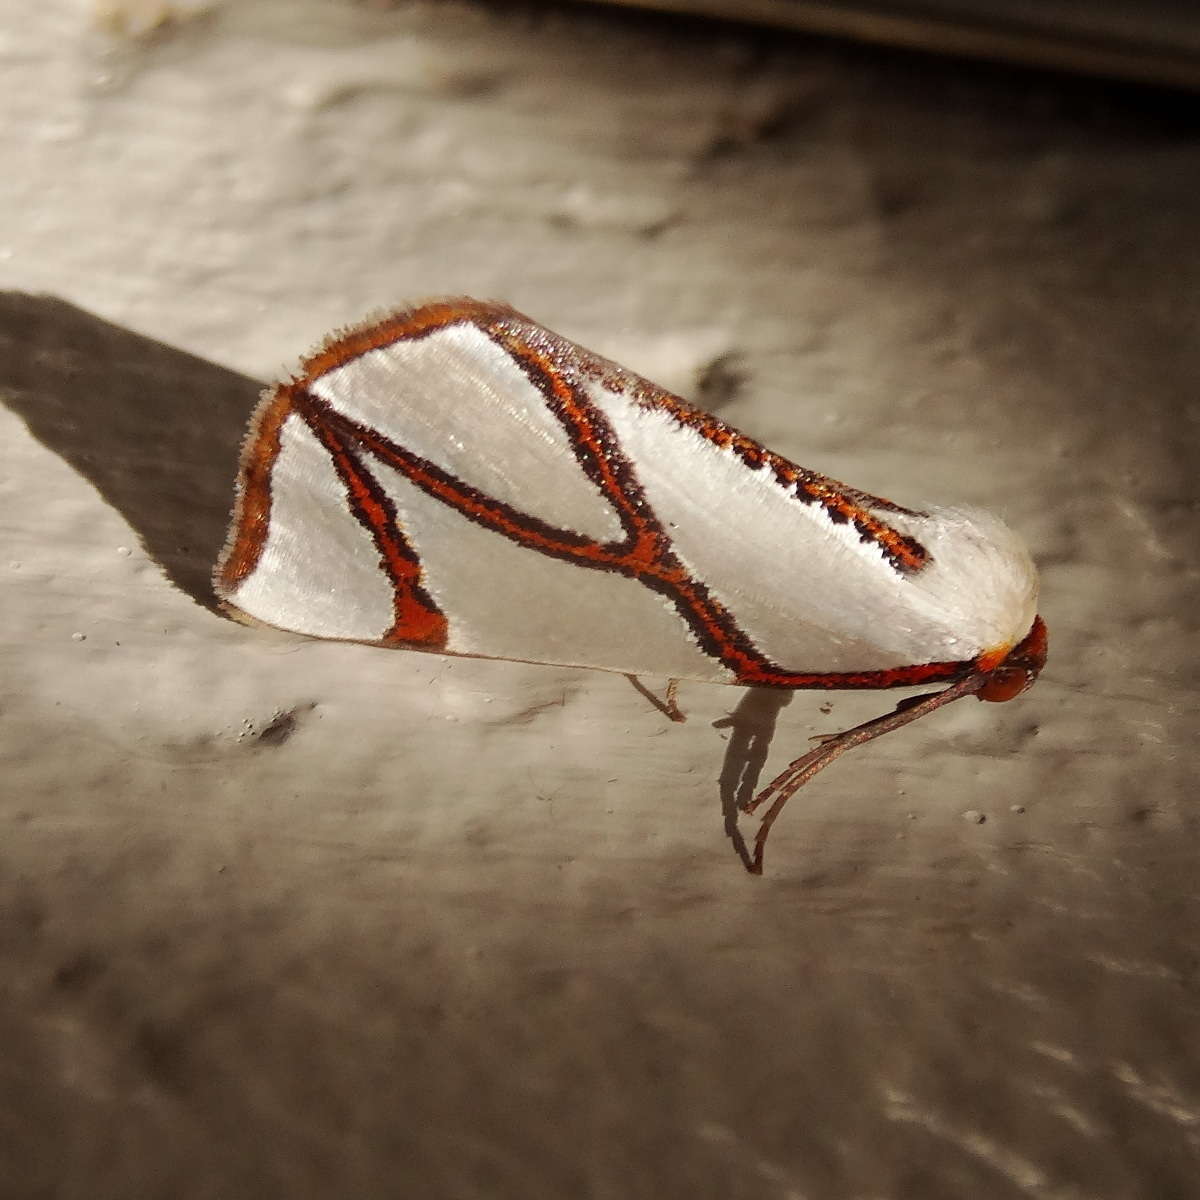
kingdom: Animalia
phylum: Arthropoda
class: Insecta
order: Lepidoptera
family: Geometridae
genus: Thalaina
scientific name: Thalaina clara
